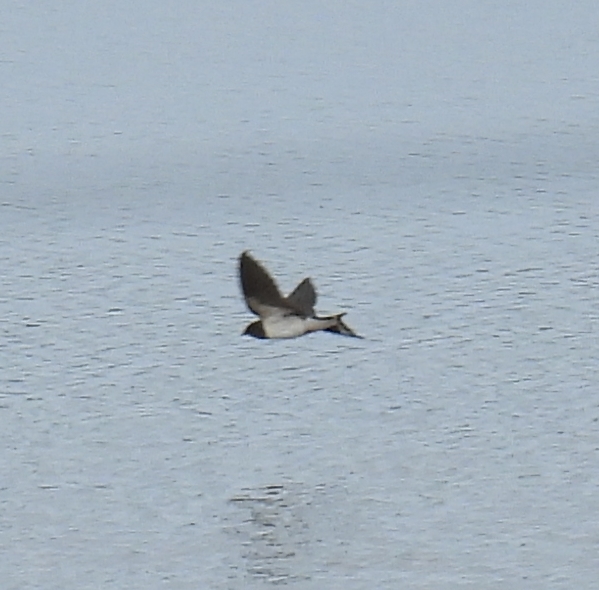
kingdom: Animalia
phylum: Chordata
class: Aves
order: Passeriformes
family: Hirundinidae
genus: Hirundo
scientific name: Hirundo rustica
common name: Barn swallow
